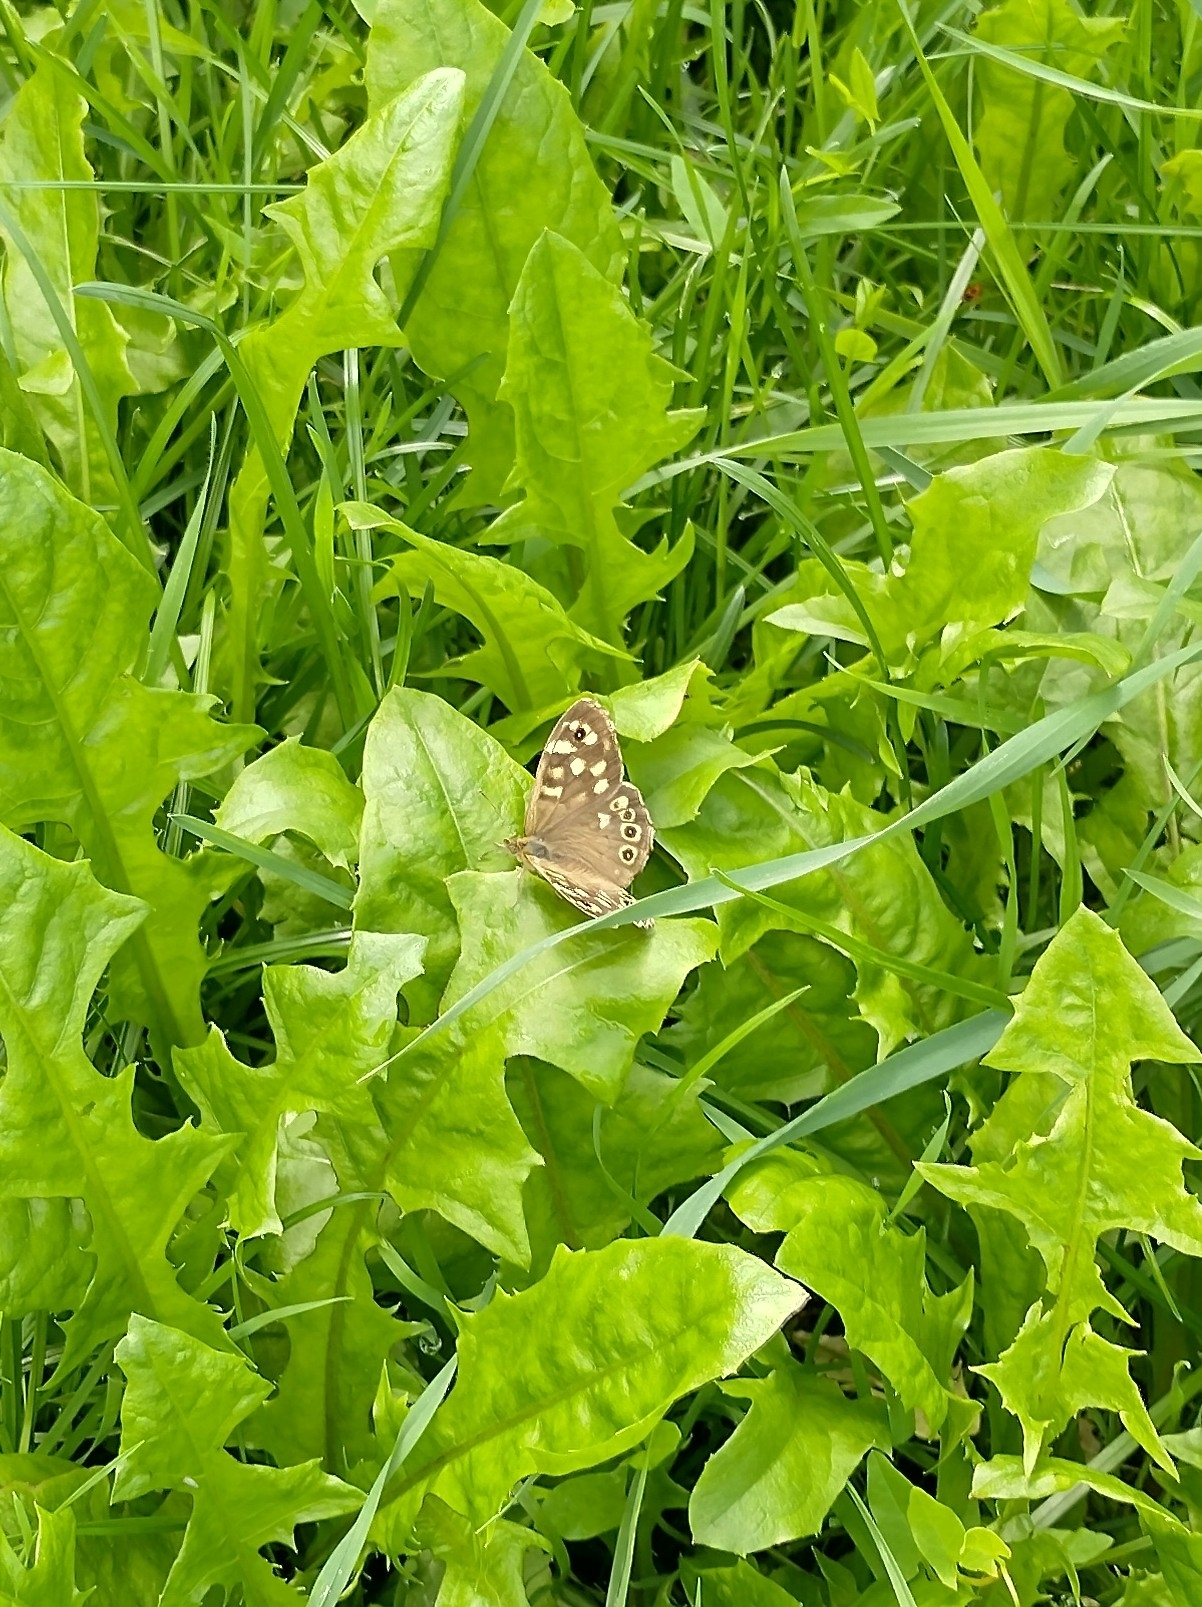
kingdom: Animalia
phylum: Arthropoda
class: Insecta
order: Lepidoptera
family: Nymphalidae
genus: Pararge
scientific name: Pararge aegeria
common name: Speckled wood
